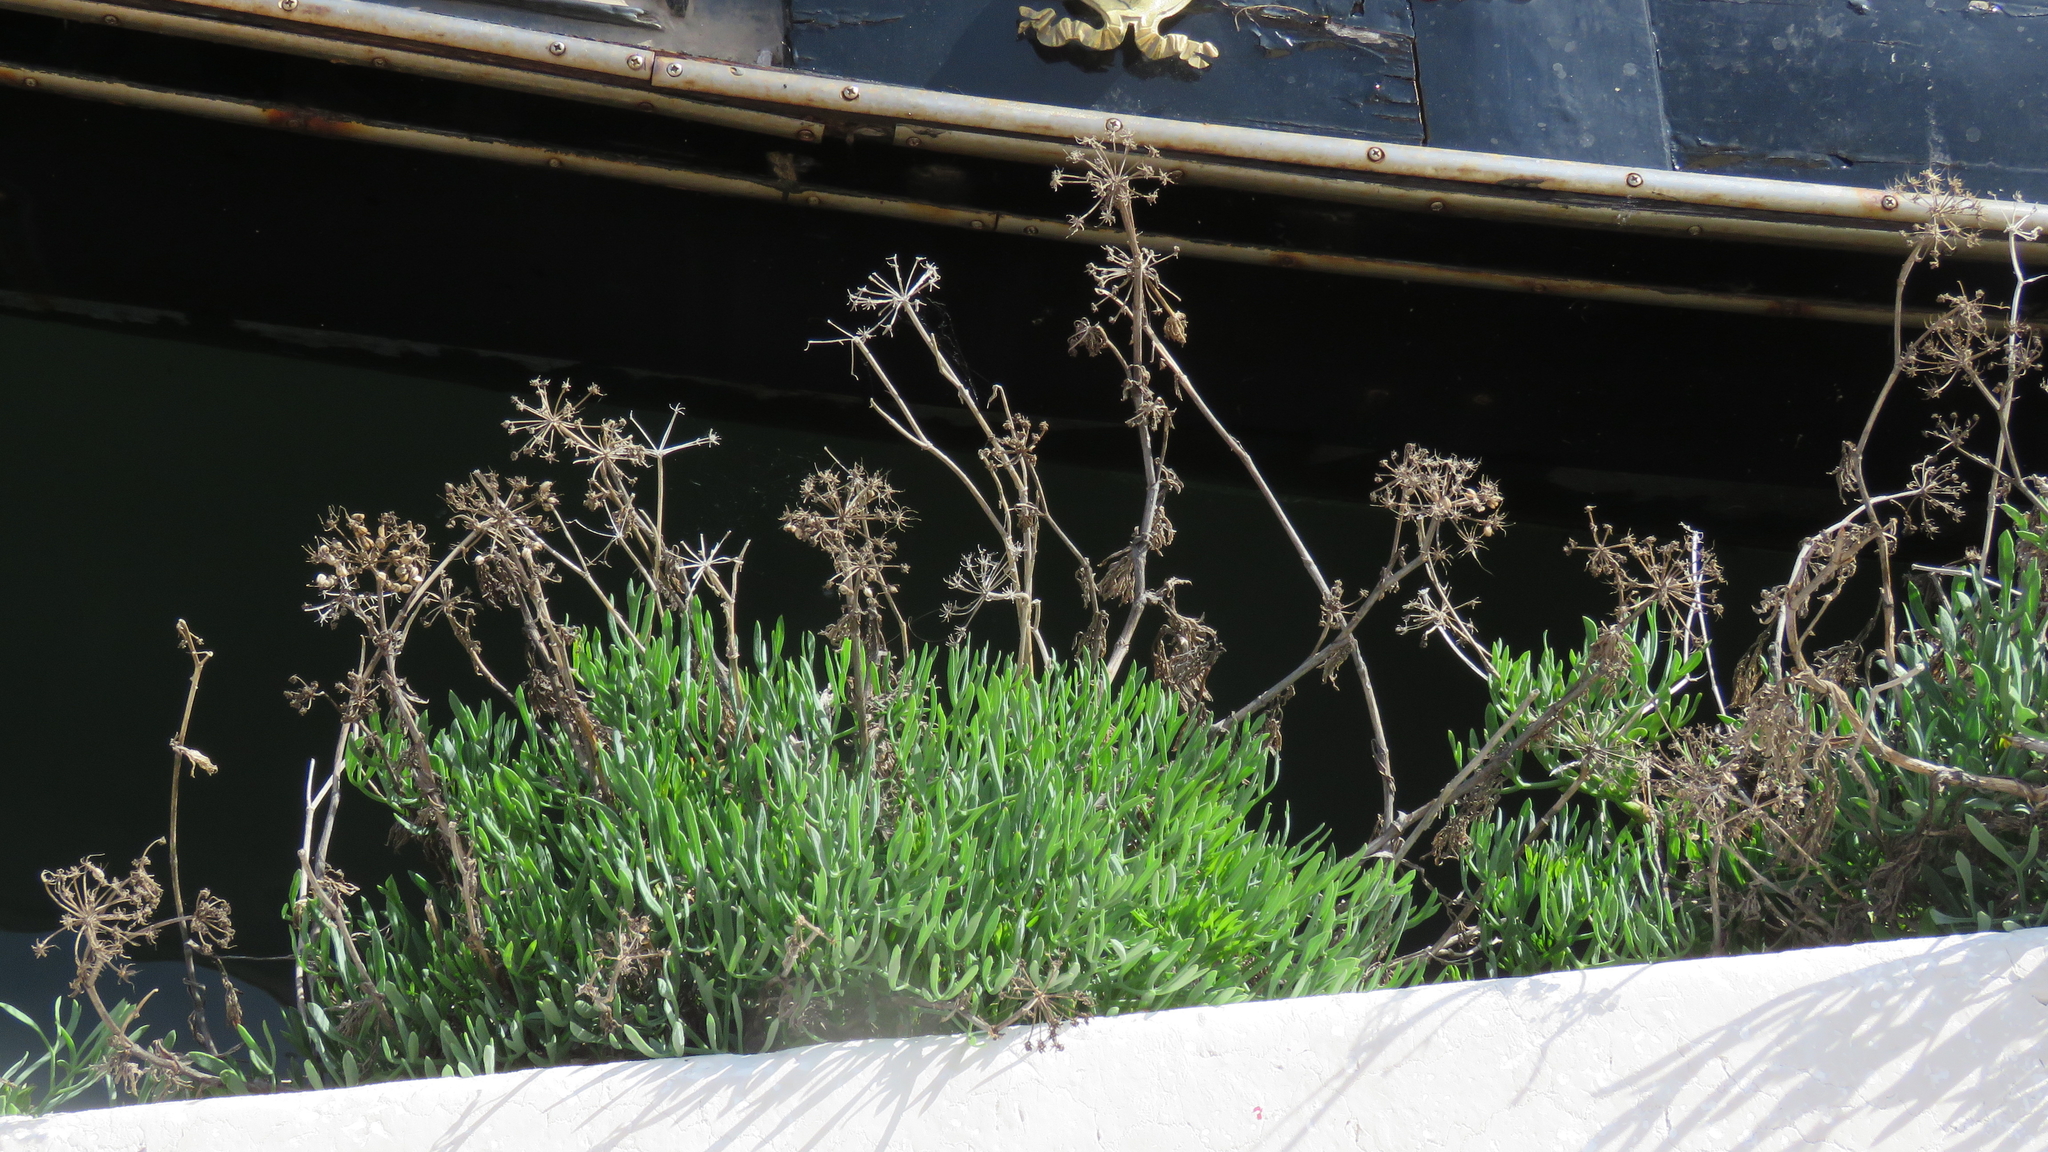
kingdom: Plantae
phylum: Tracheophyta
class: Magnoliopsida
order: Apiales
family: Apiaceae
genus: Crithmum
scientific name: Crithmum maritimum
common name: Rock samphire
